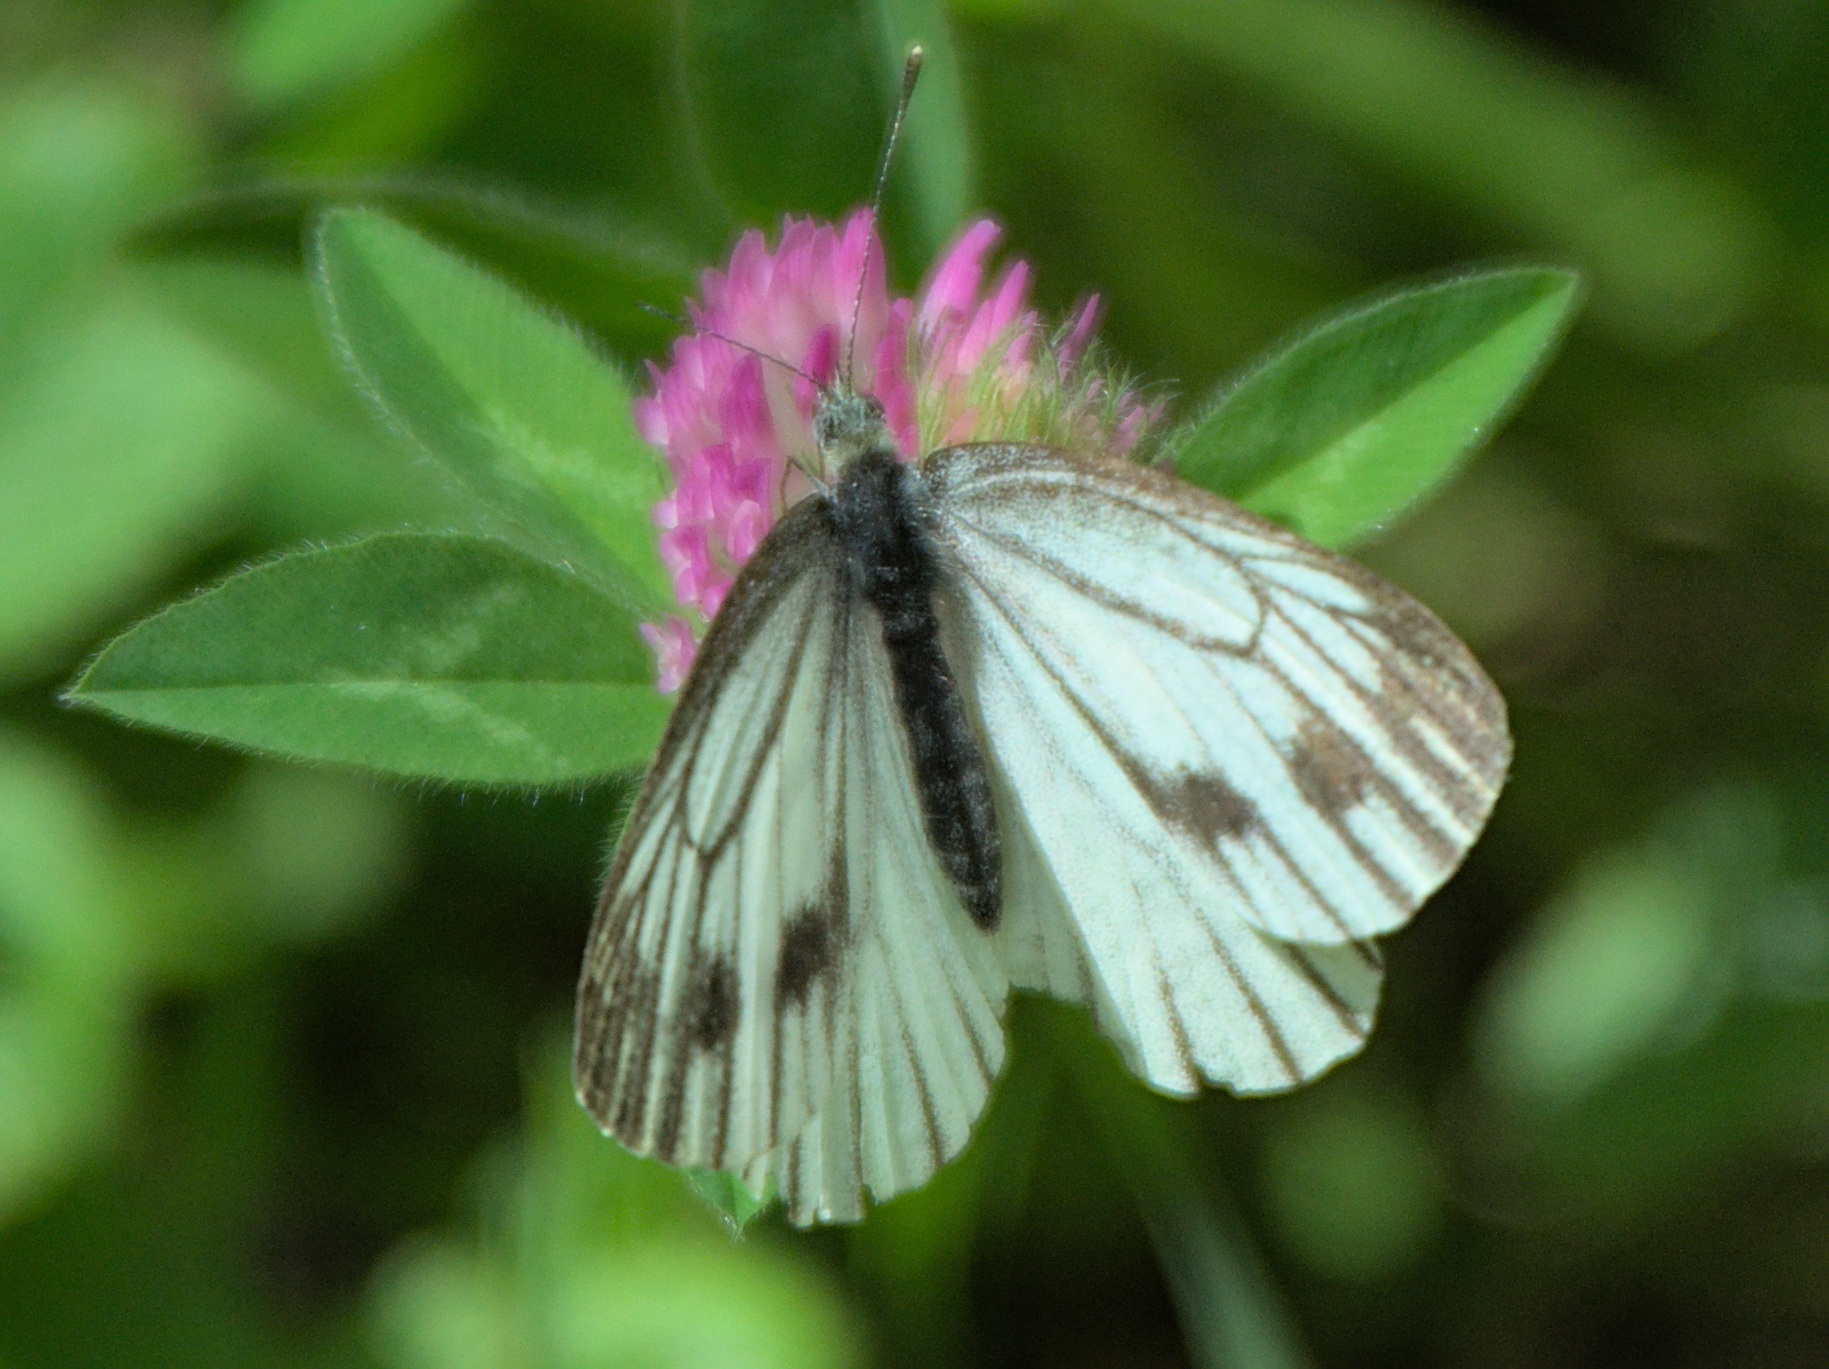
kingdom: Animalia
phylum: Arthropoda
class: Insecta
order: Lepidoptera
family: Pieridae
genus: Pieris
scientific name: Pieris napi
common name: Green-veined white
